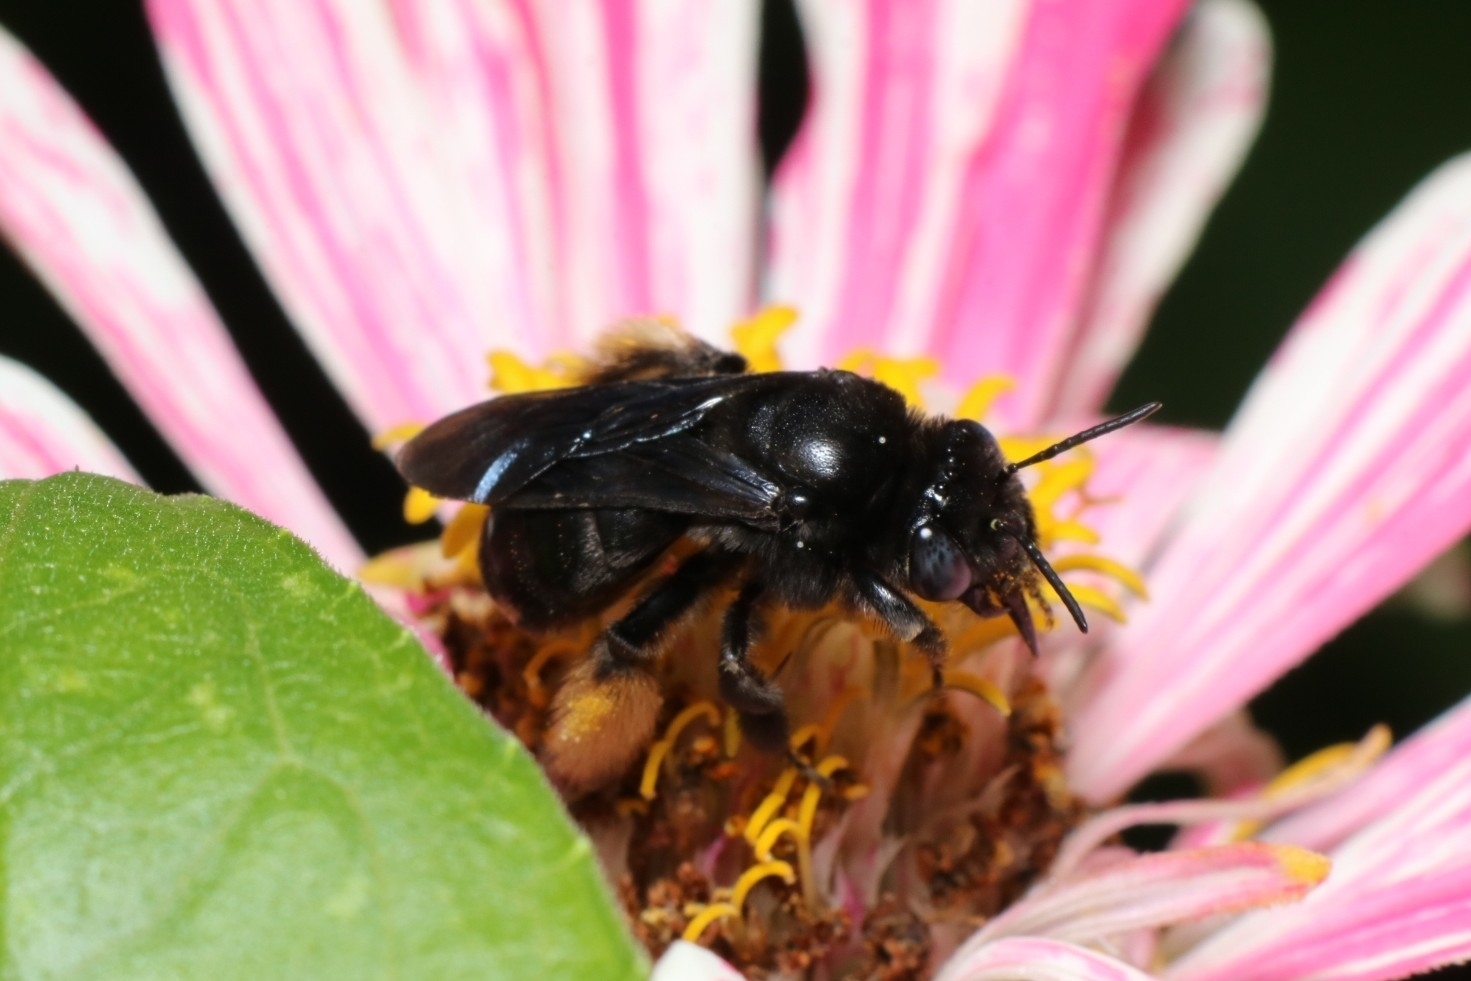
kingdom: Animalia
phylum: Arthropoda
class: Insecta
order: Hymenoptera
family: Apidae
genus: Melissodes
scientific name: Melissodes bimaculatus
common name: Two-spotted long-horned bee
